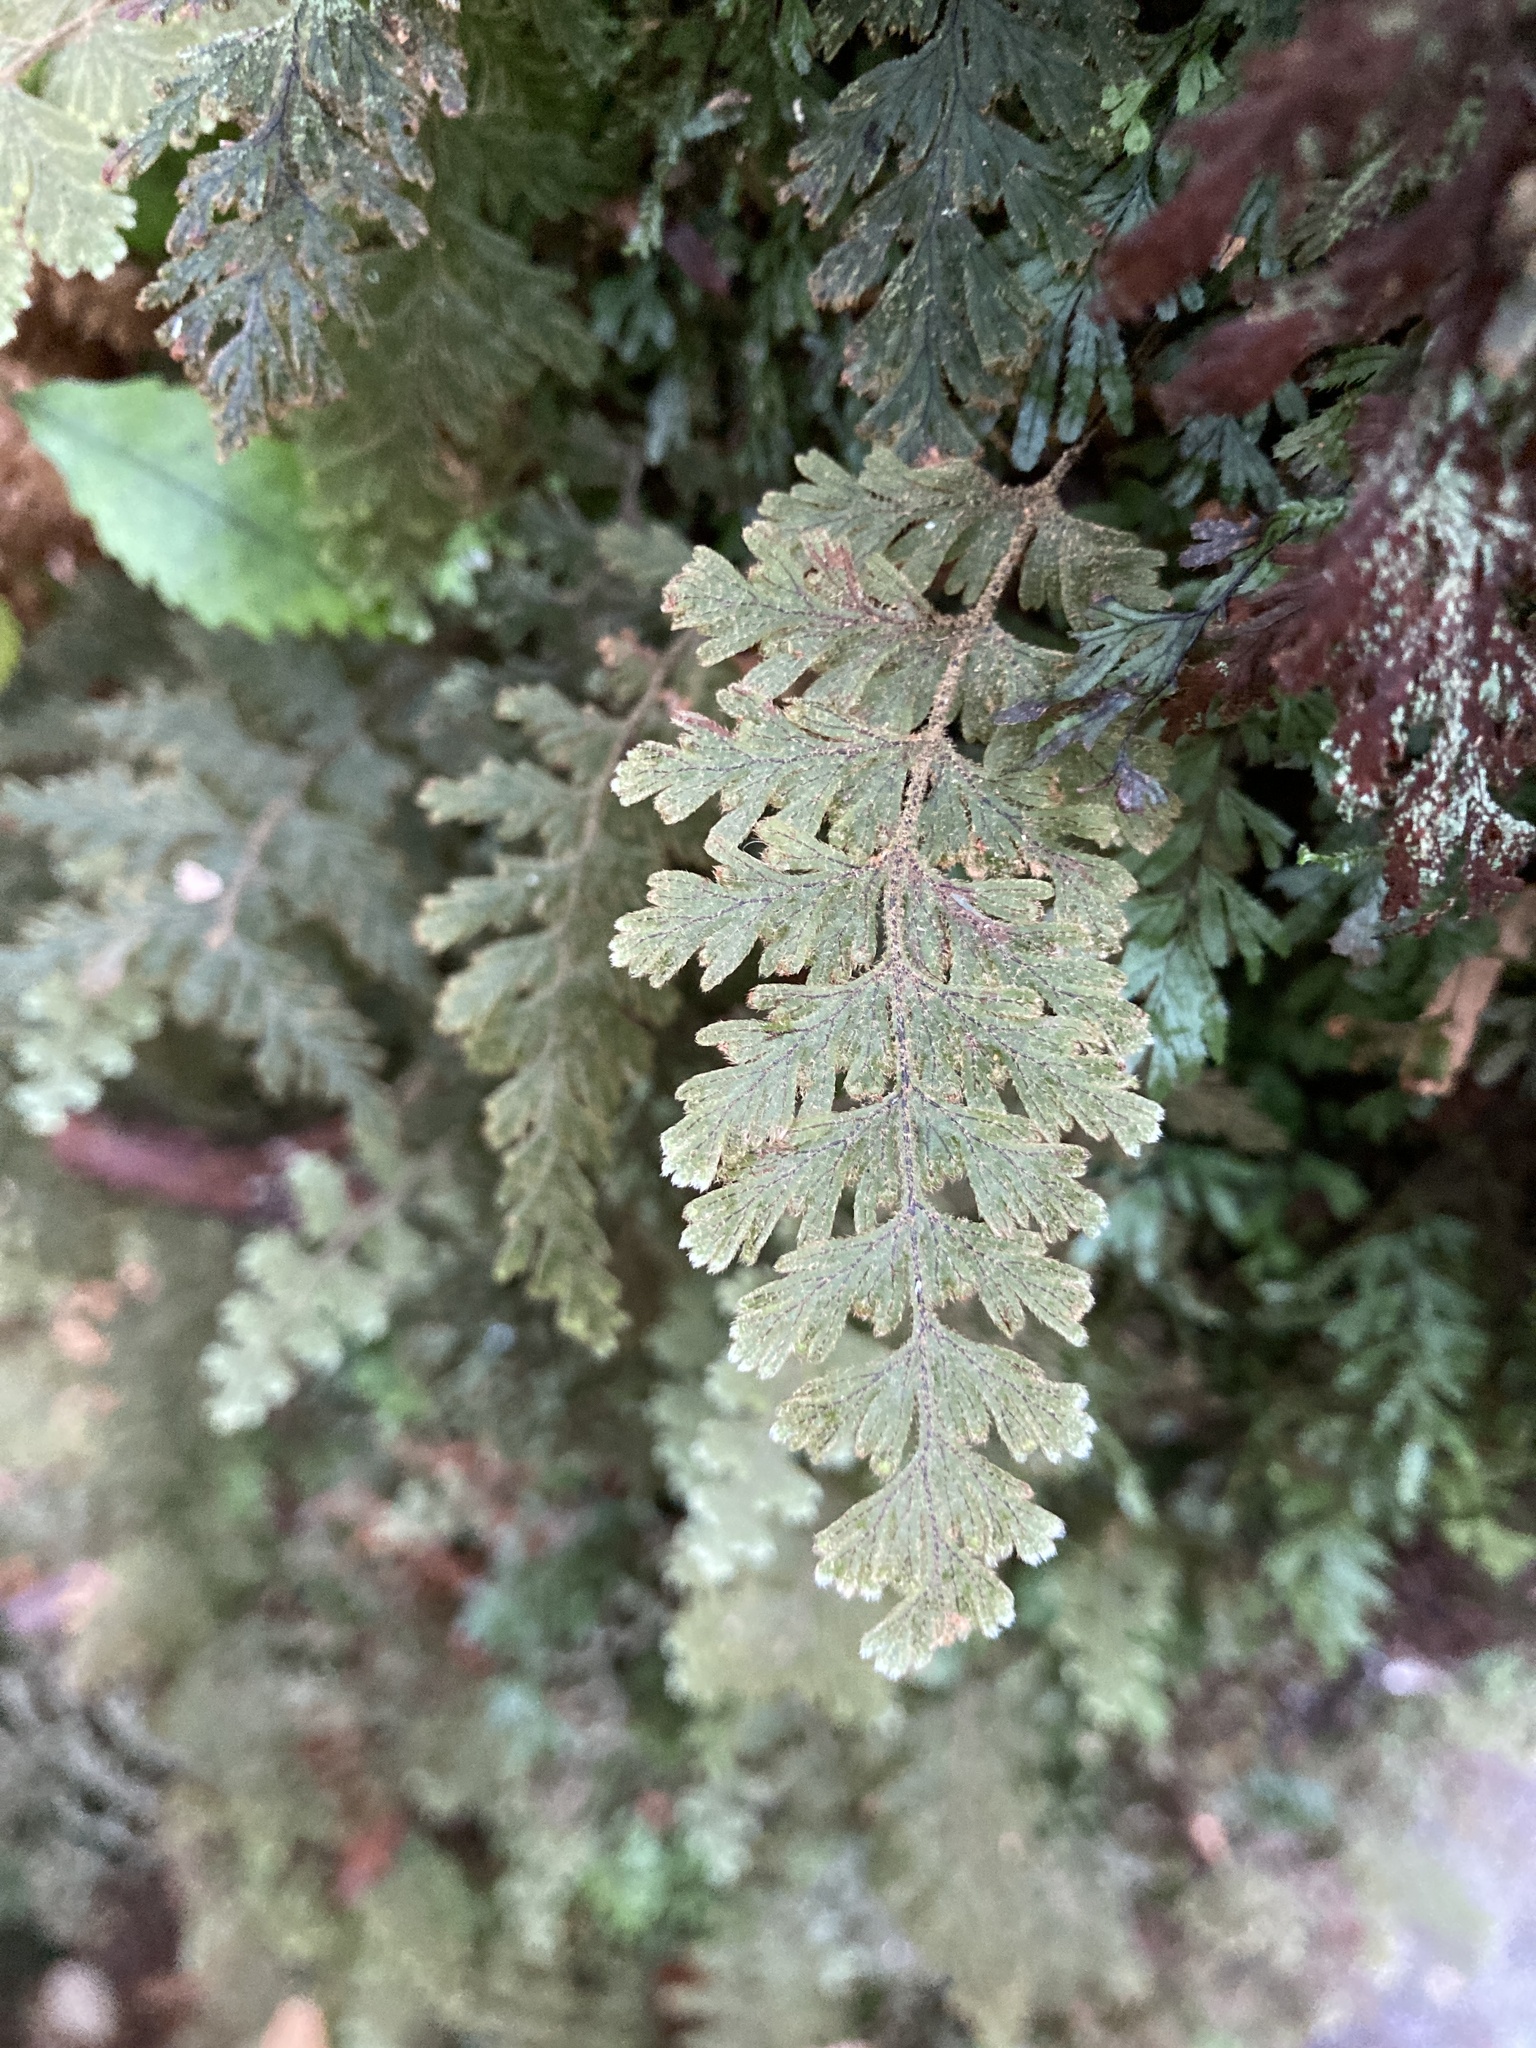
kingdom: Plantae
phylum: Tracheophyta
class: Polypodiopsida
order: Hymenophyllales
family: Hymenophyllaceae
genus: Hymenophyllum
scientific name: Hymenophyllum frankliniae
